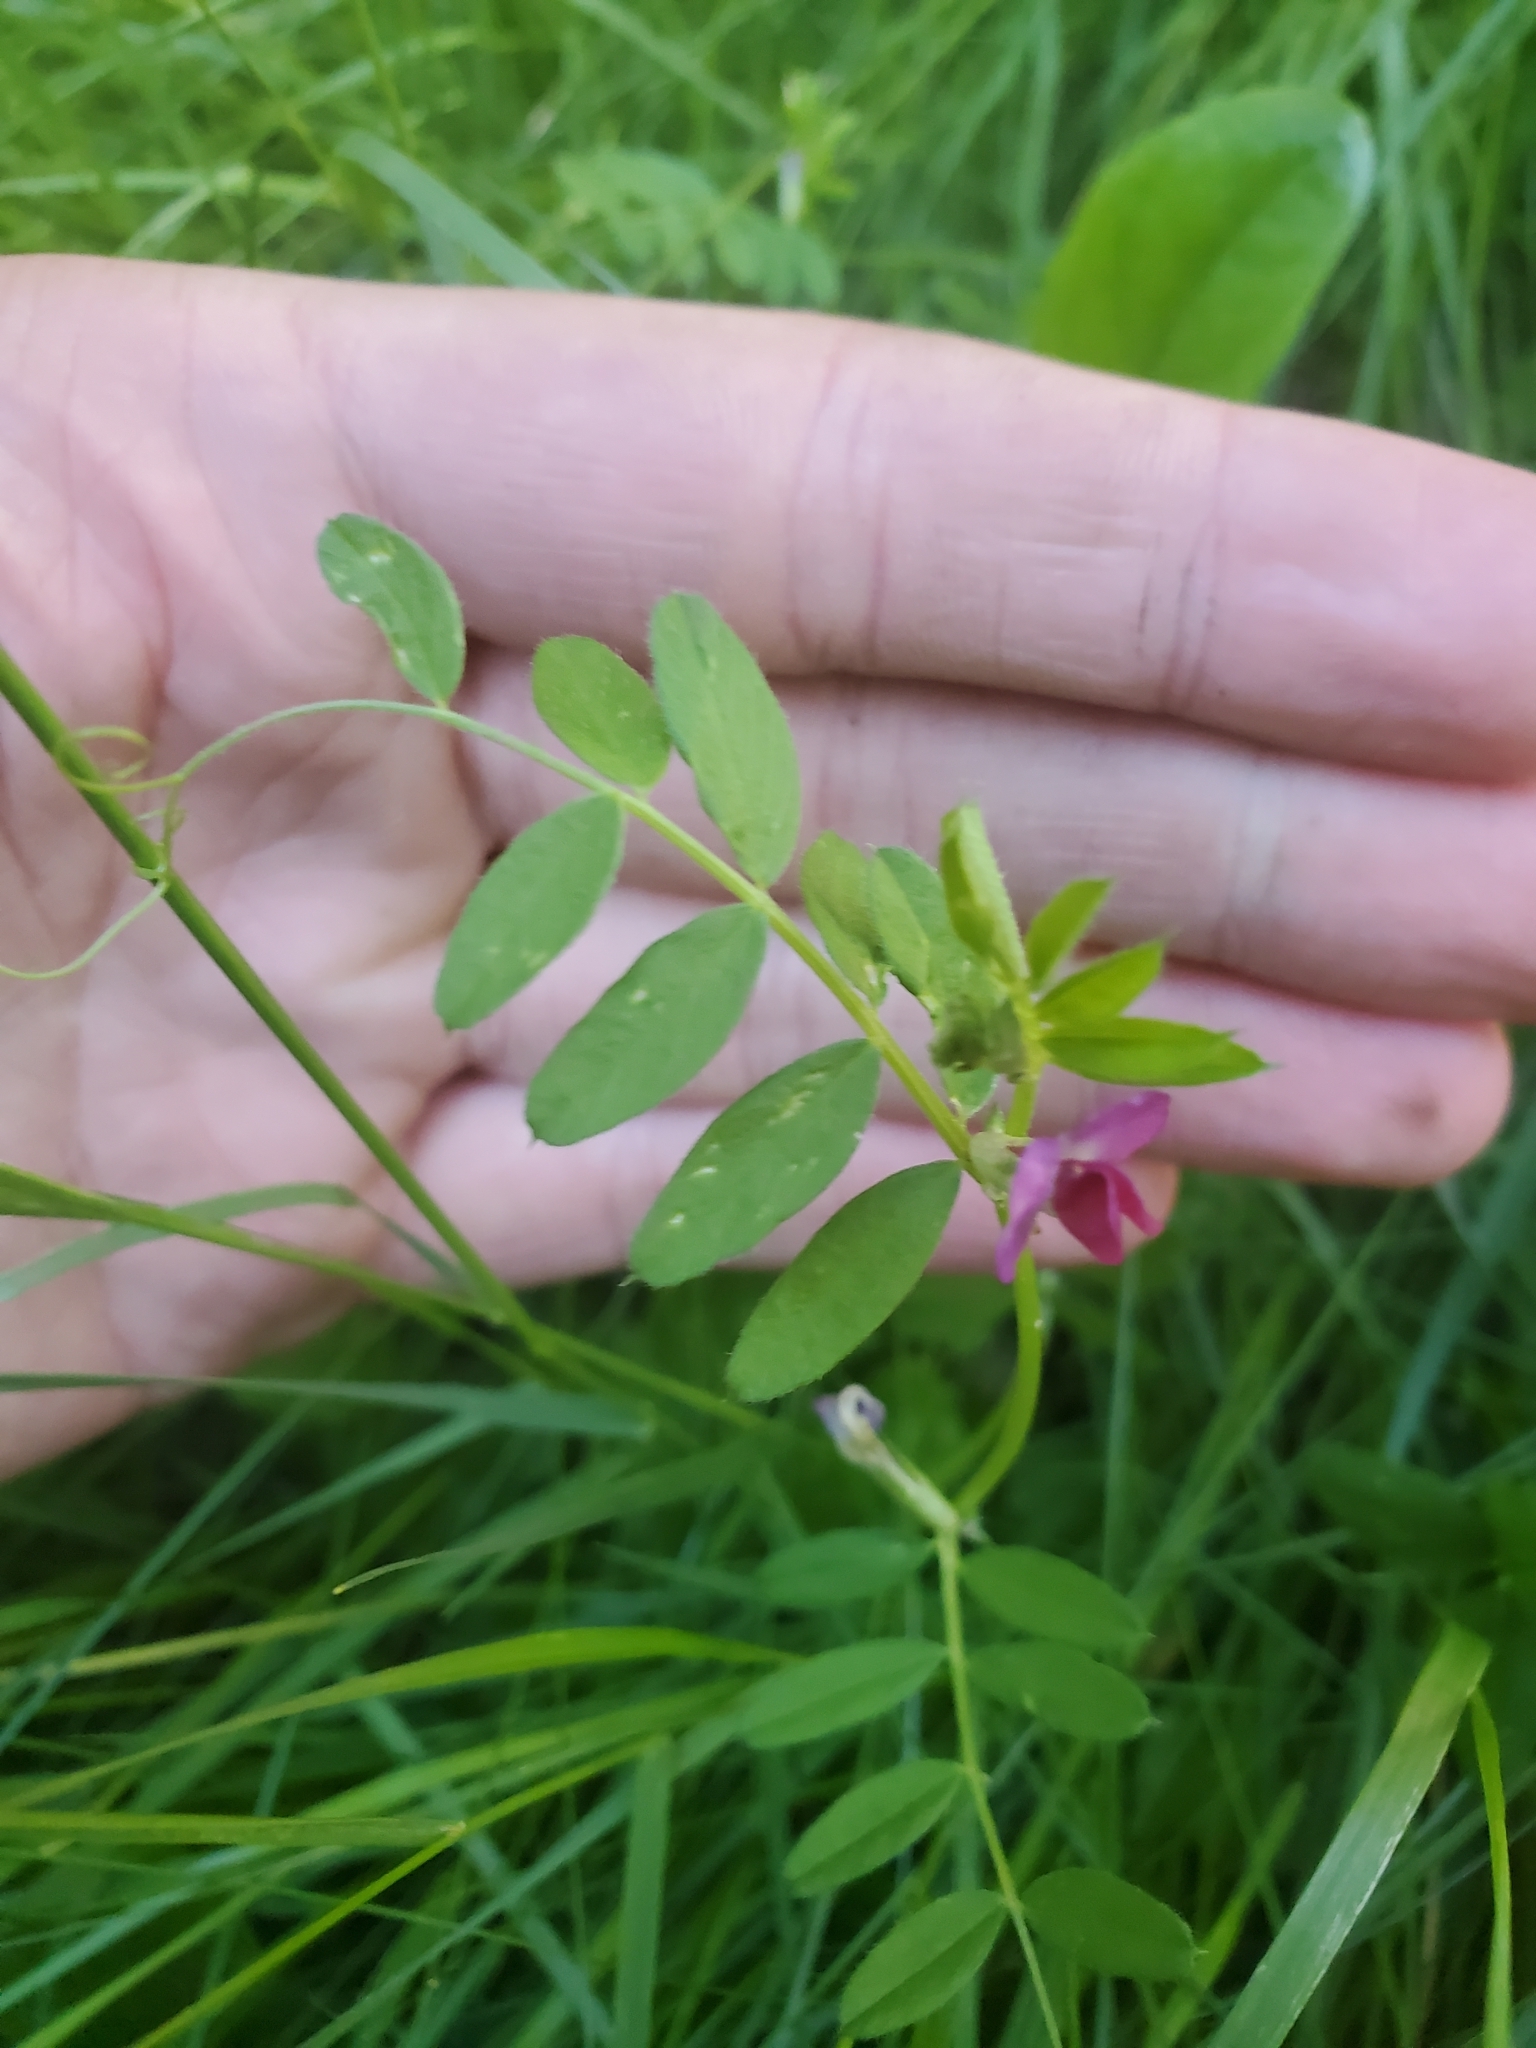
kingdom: Plantae
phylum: Tracheophyta
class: Magnoliopsida
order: Fabales
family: Fabaceae
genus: Vicia
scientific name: Vicia sativa
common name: Garden vetch
